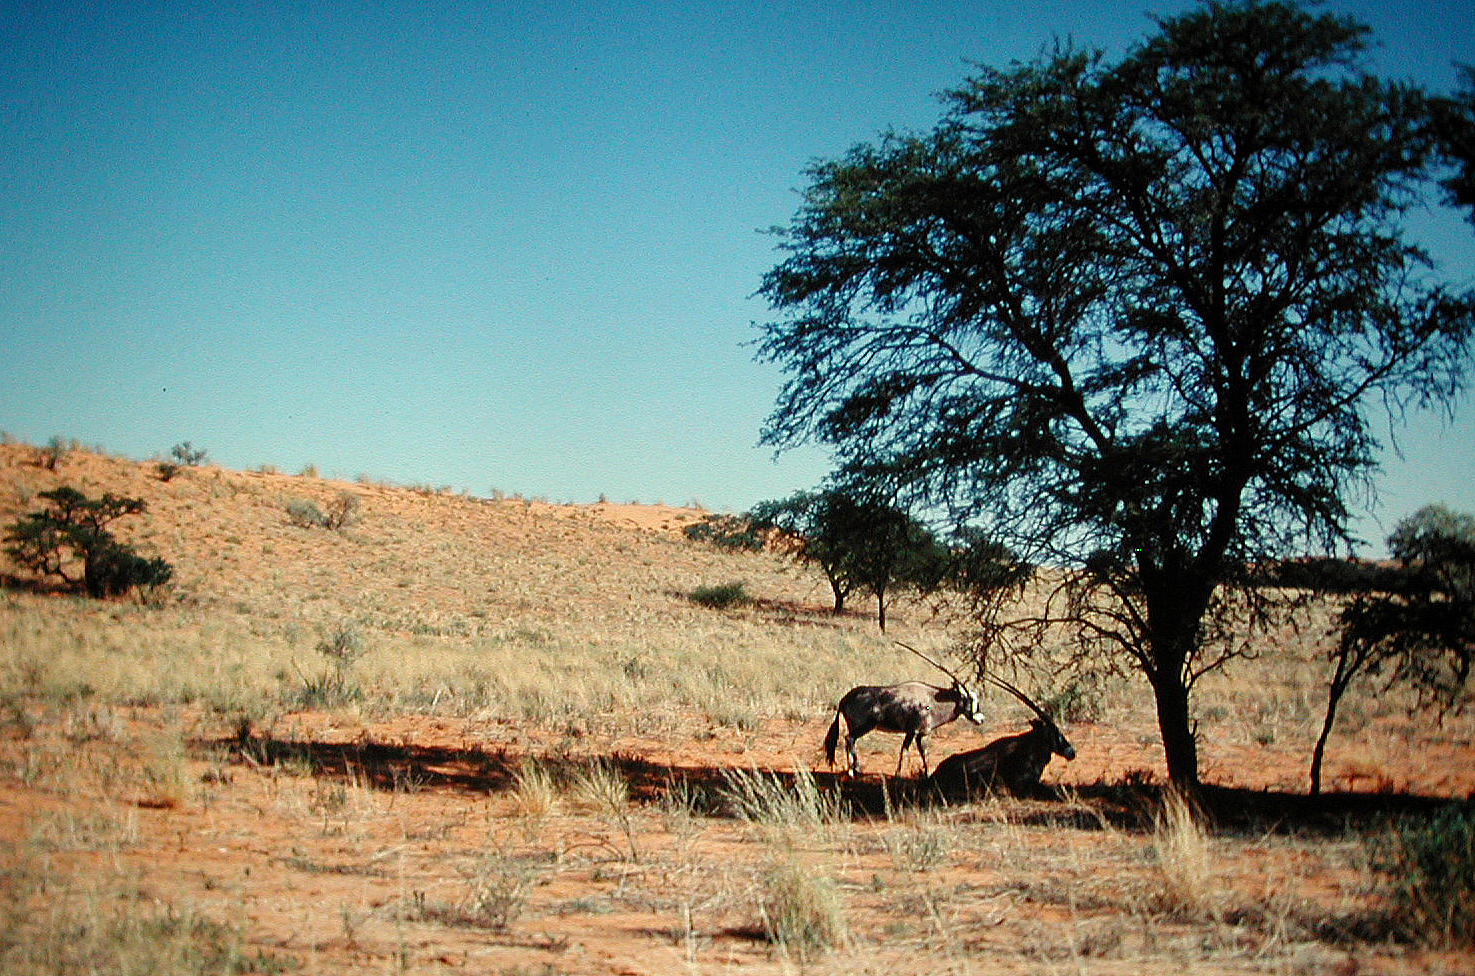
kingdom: Animalia
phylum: Chordata
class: Mammalia
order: Artiodactyla
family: Bovidae
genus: Oryx
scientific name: Oryx gazella
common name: Gemsbok
